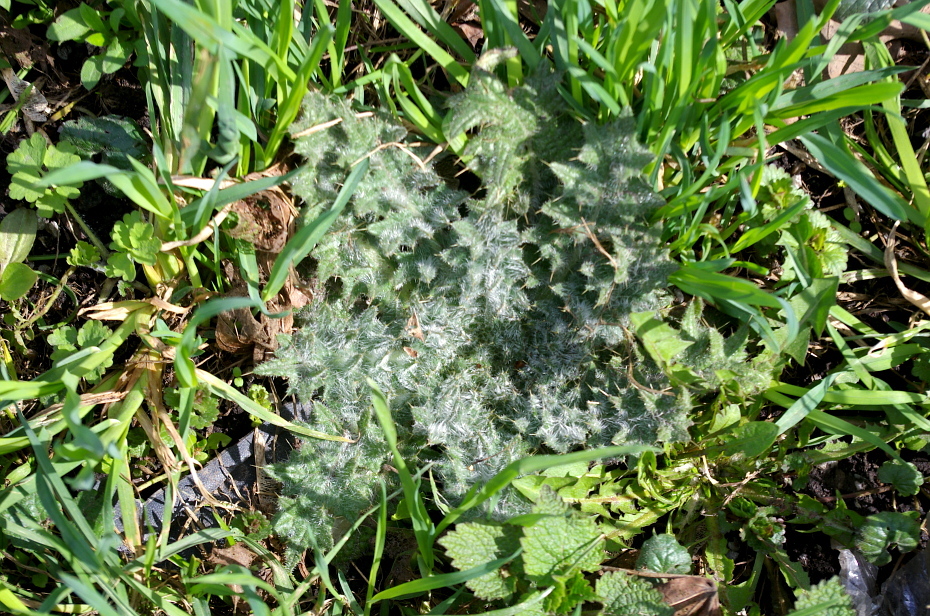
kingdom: Plantae
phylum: Tracheophyta
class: Magnoliopsida
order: Asterales
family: Asteraceae
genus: Cirsium
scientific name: Cirsium vulgare
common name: Bull thistle
